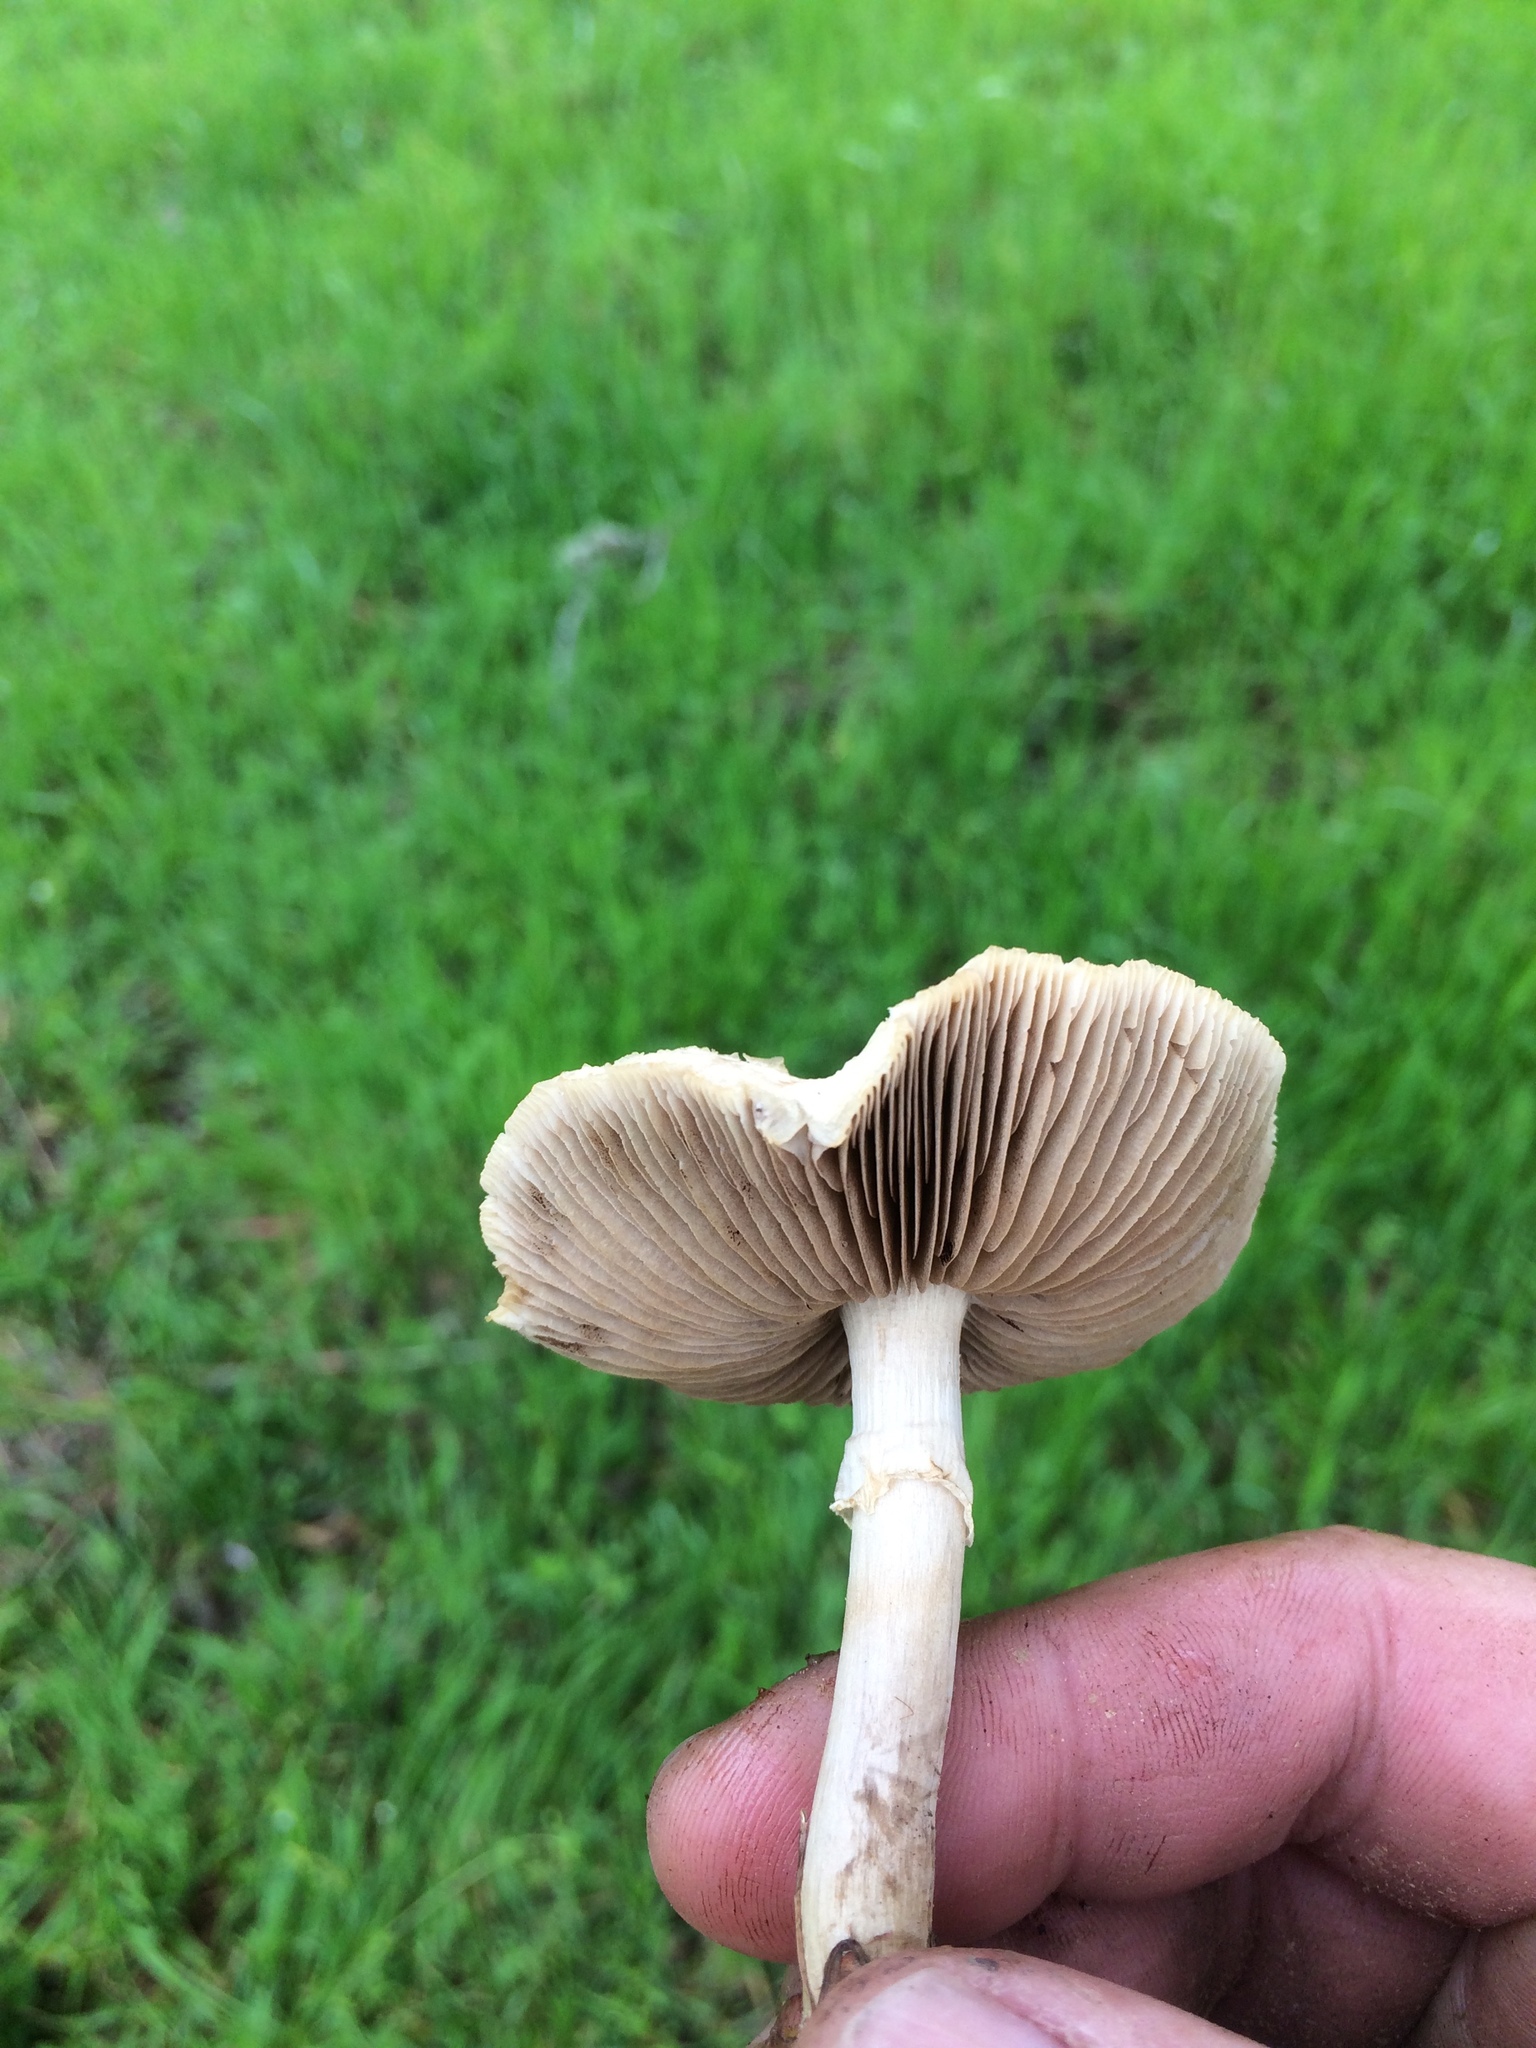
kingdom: Fungi
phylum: Basidiomycota
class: Agaricomycetes
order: Agaricales
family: Strophariaceae
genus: Agrocybe
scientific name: Agrocybe molesta
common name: Bearded fieldcap
